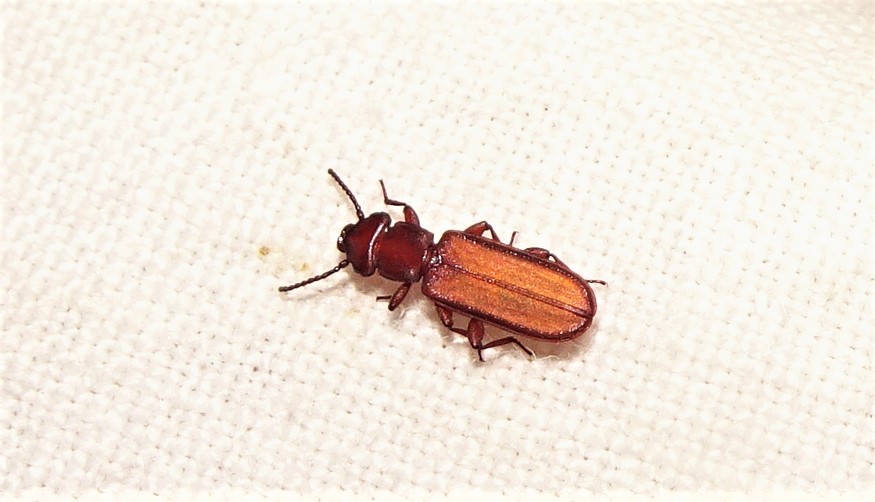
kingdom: Animalia
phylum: Arthropoda
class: Insecta
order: Coleoptera
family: Cucujidae
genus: Platisus
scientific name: Platisus
